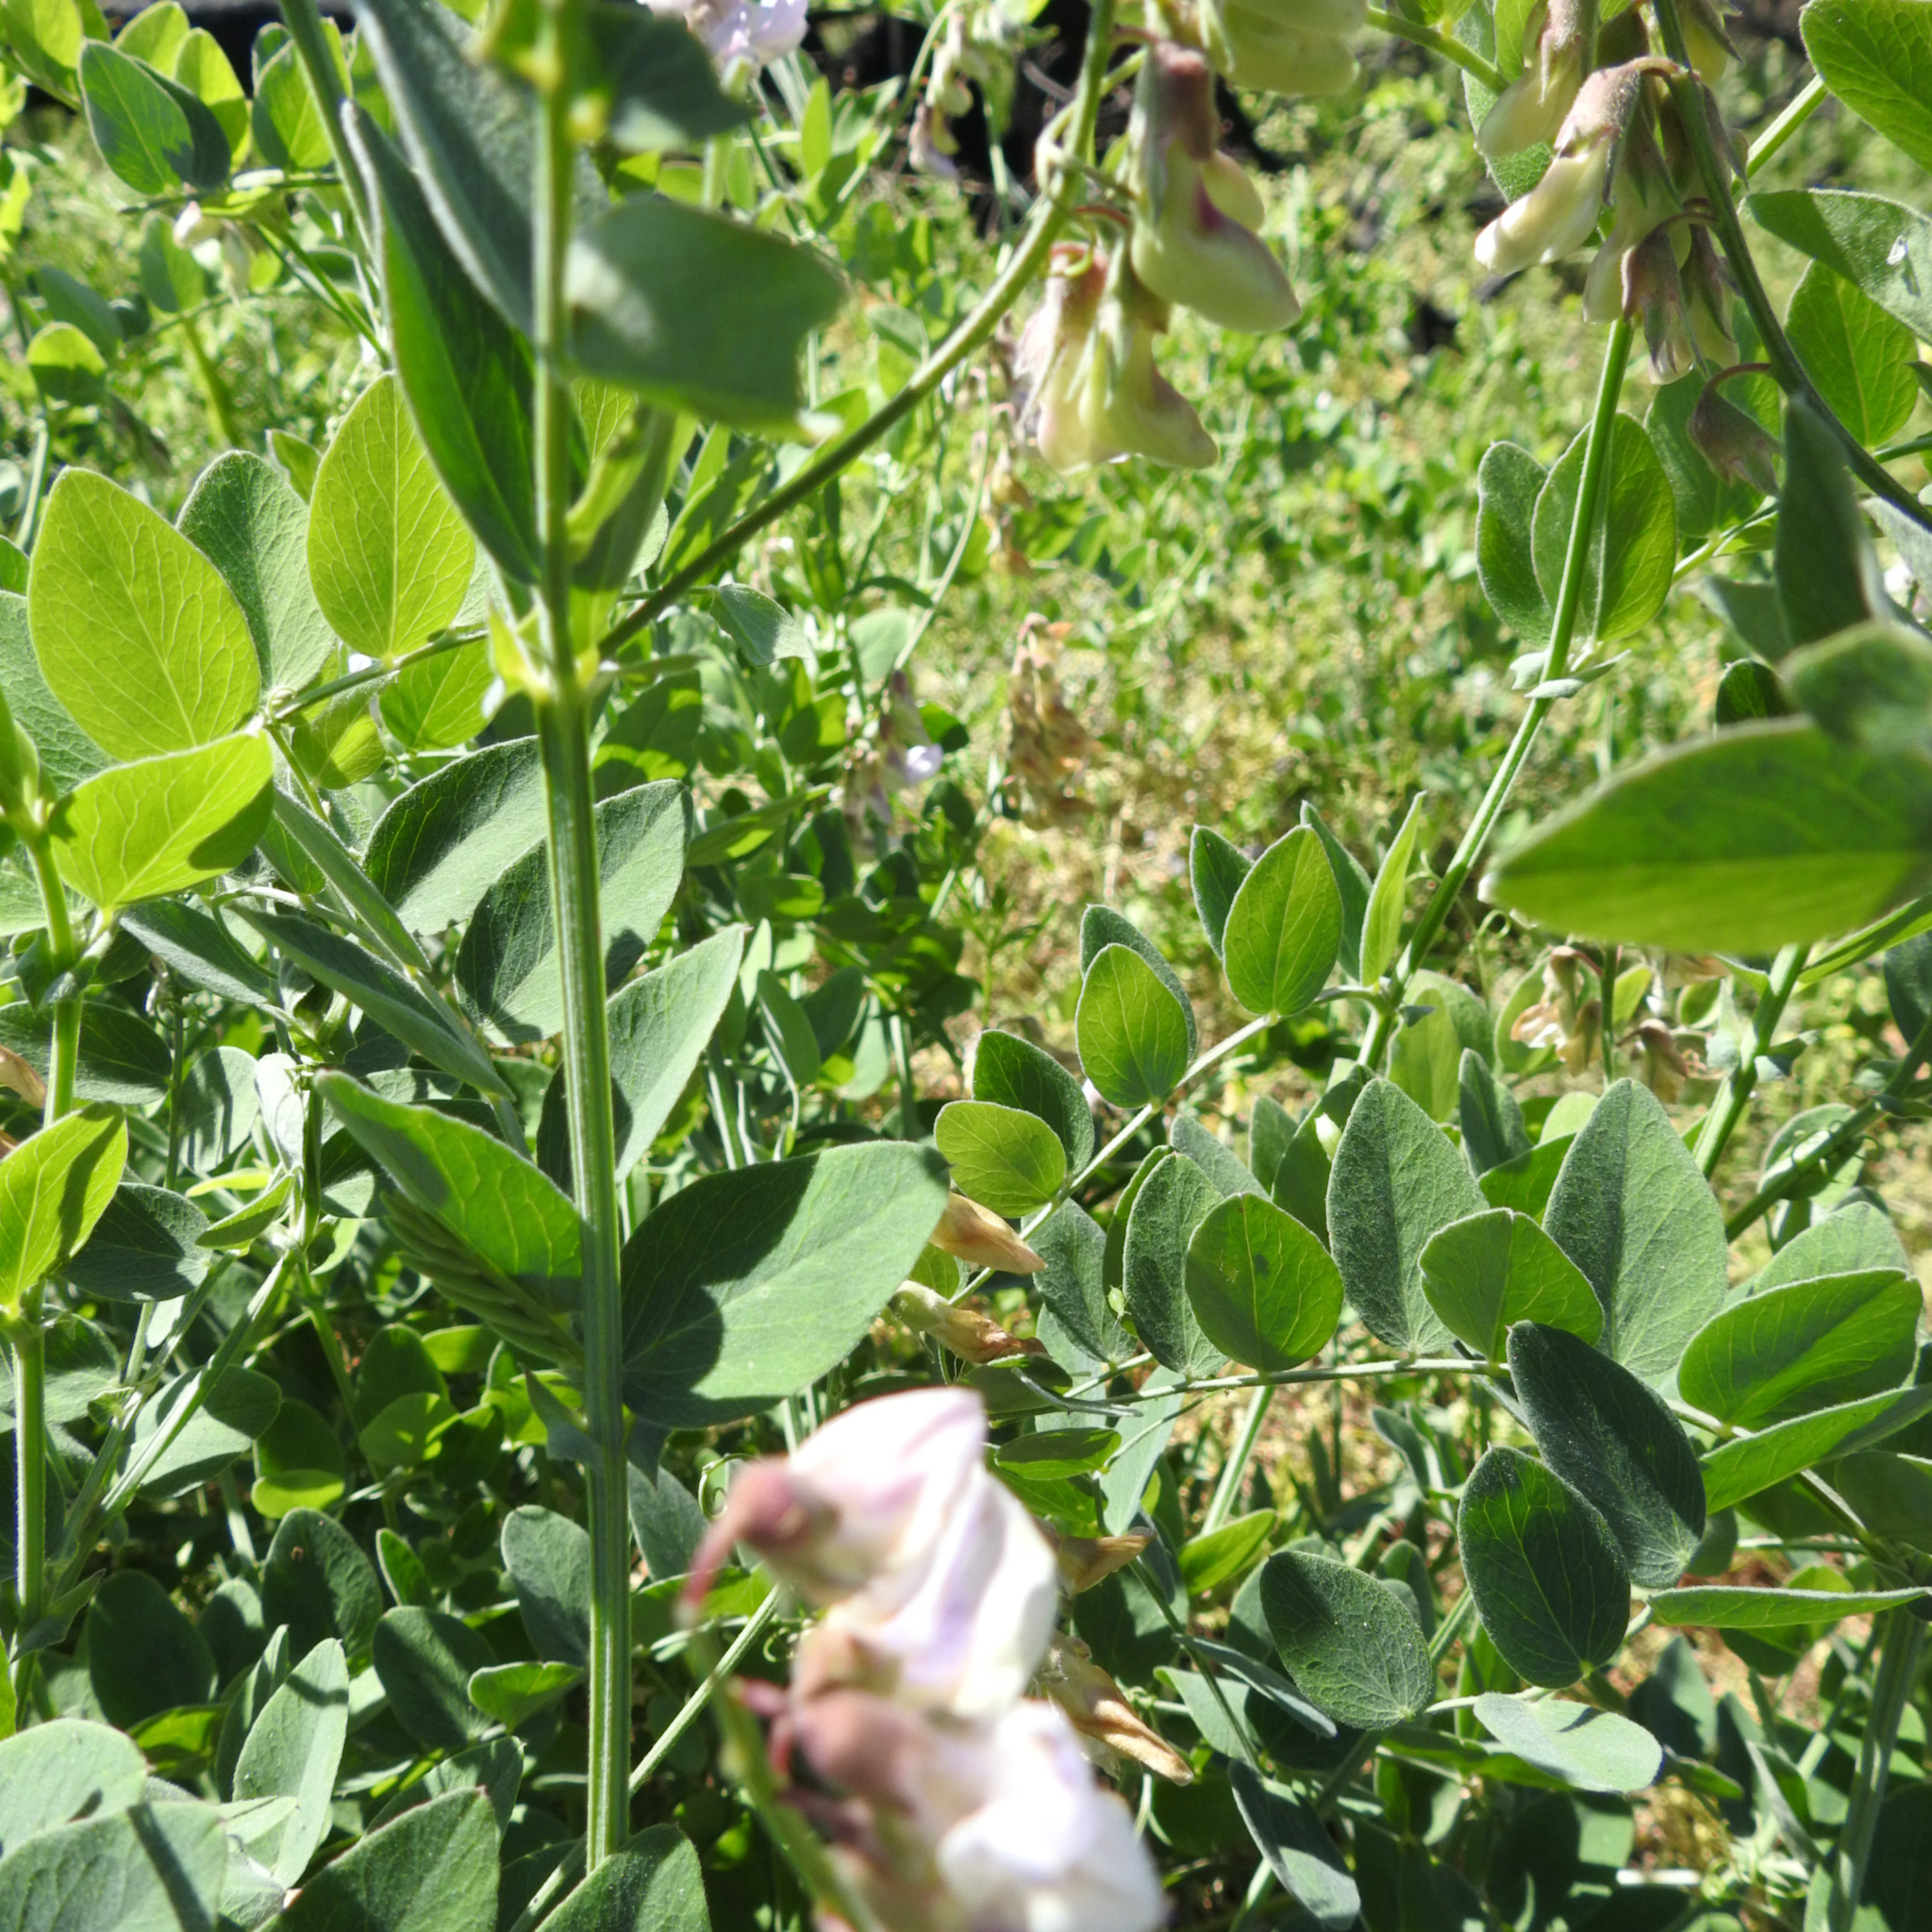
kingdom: Plantae
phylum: Tracheophyta
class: Magnoliopsida
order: Fabales
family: Fabaceae
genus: Lathyrus
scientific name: Lathyrus vestitus
